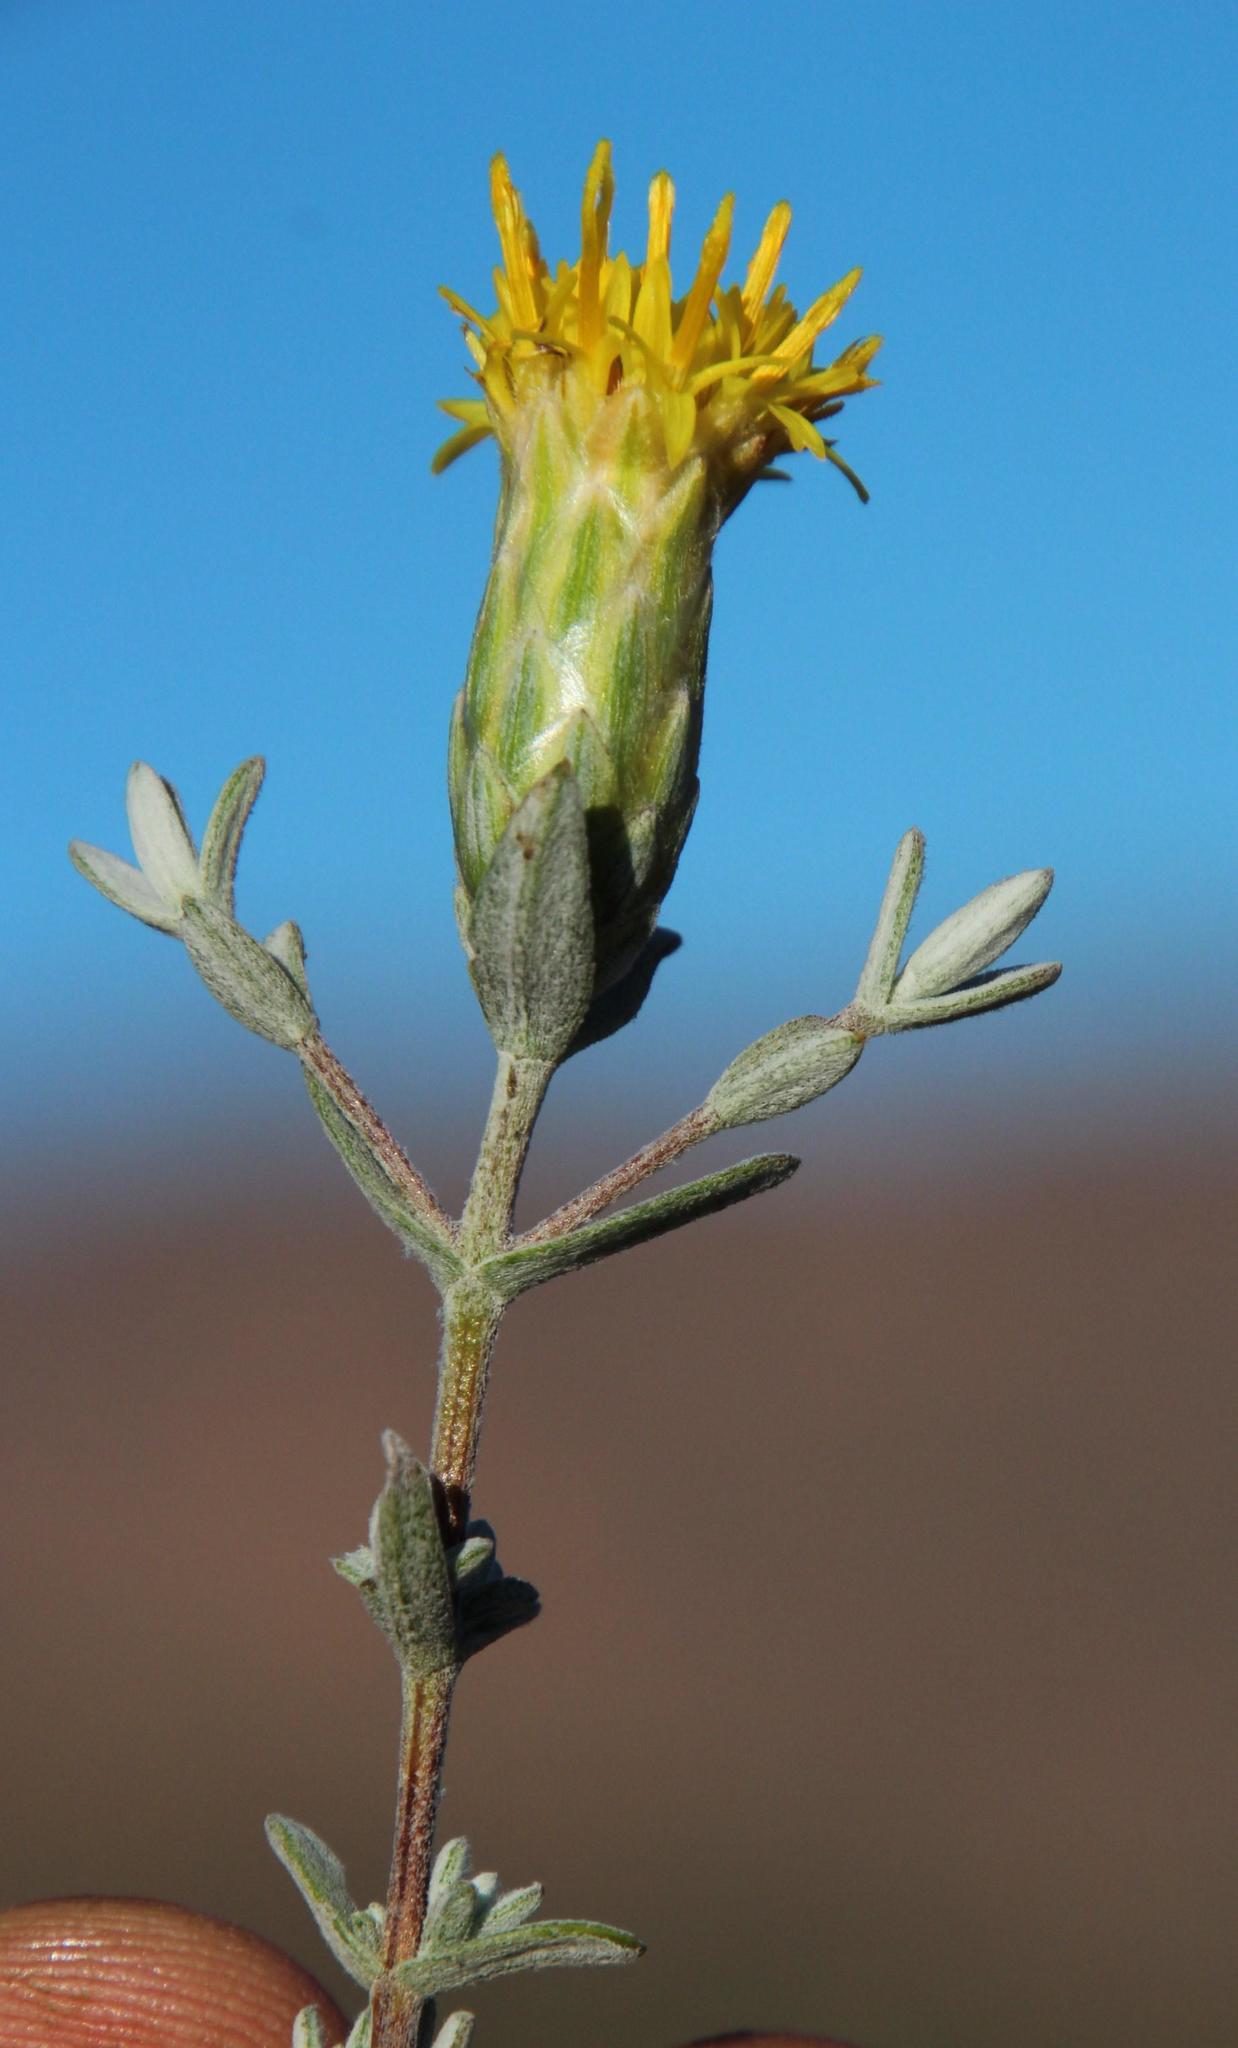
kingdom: Plantae
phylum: Tracheophyta
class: Magnoliopsida
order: Asterales
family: Asteraceae
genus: Pteronia
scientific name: Pteronia cinerea
